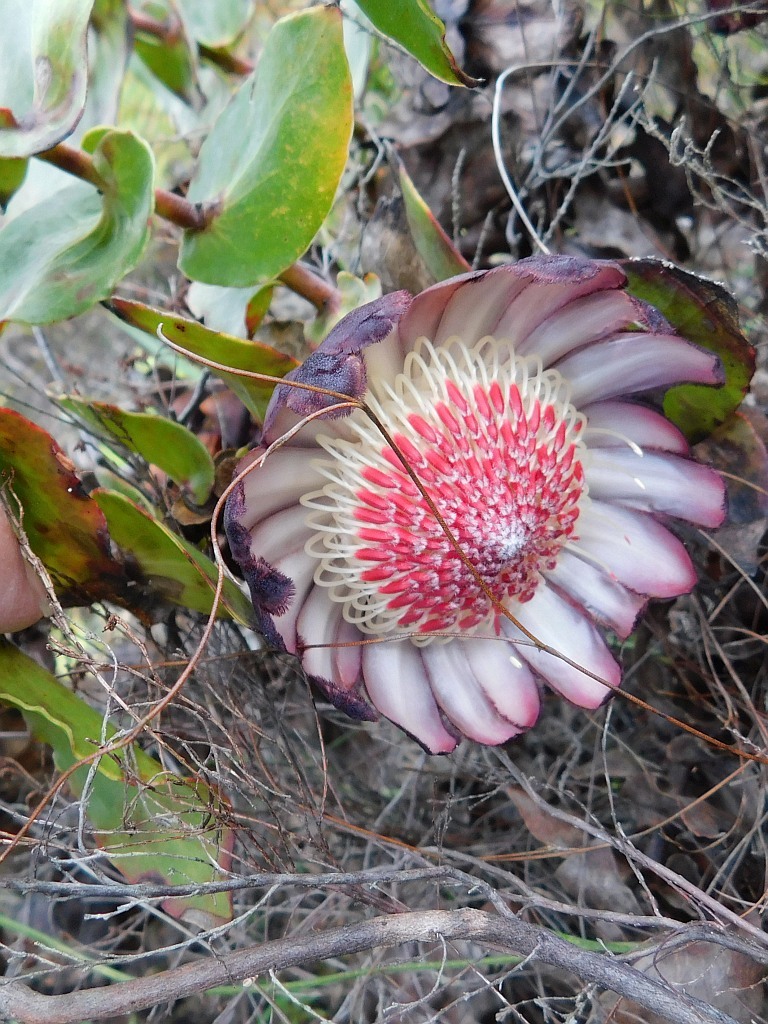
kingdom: Plantae
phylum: Tracheophyta
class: Magnoliopsida
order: Proteales
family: Proteaceae
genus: Protea
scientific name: Protea amplexicaulis
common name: Clasping-leaf sugarbush
